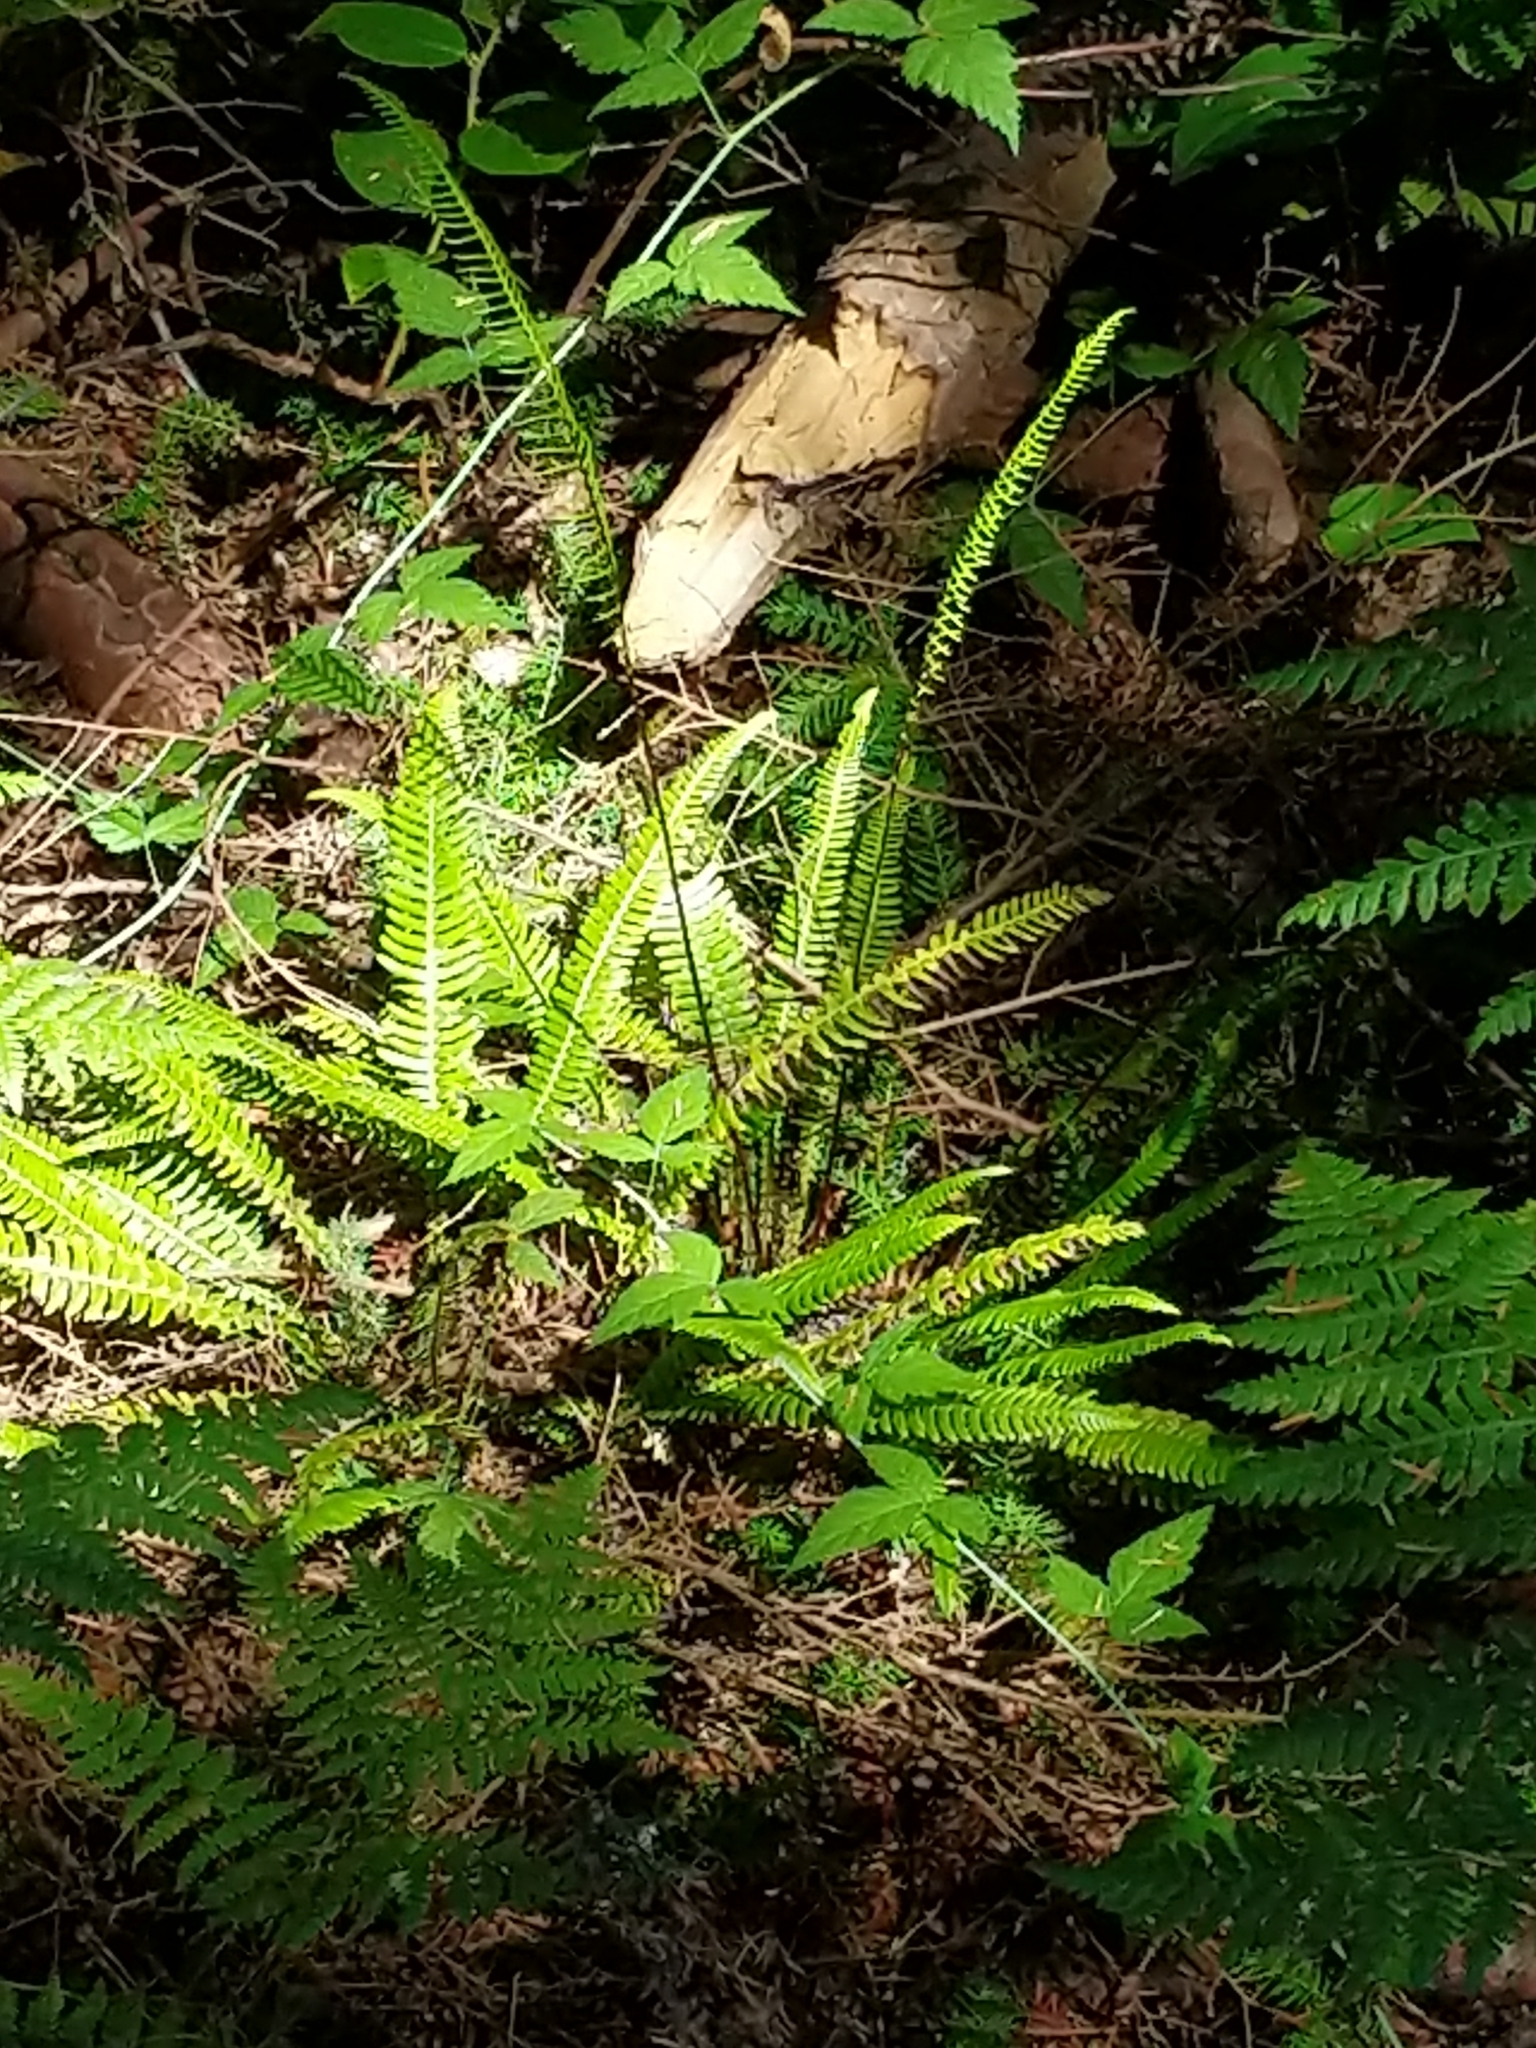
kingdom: Plantae
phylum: Tracheophyta
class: Polypodiopsida
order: Polypodiales
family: Blechnaceae
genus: Struthiopteris
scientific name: Struthiopteris spicant
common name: Deer fern
